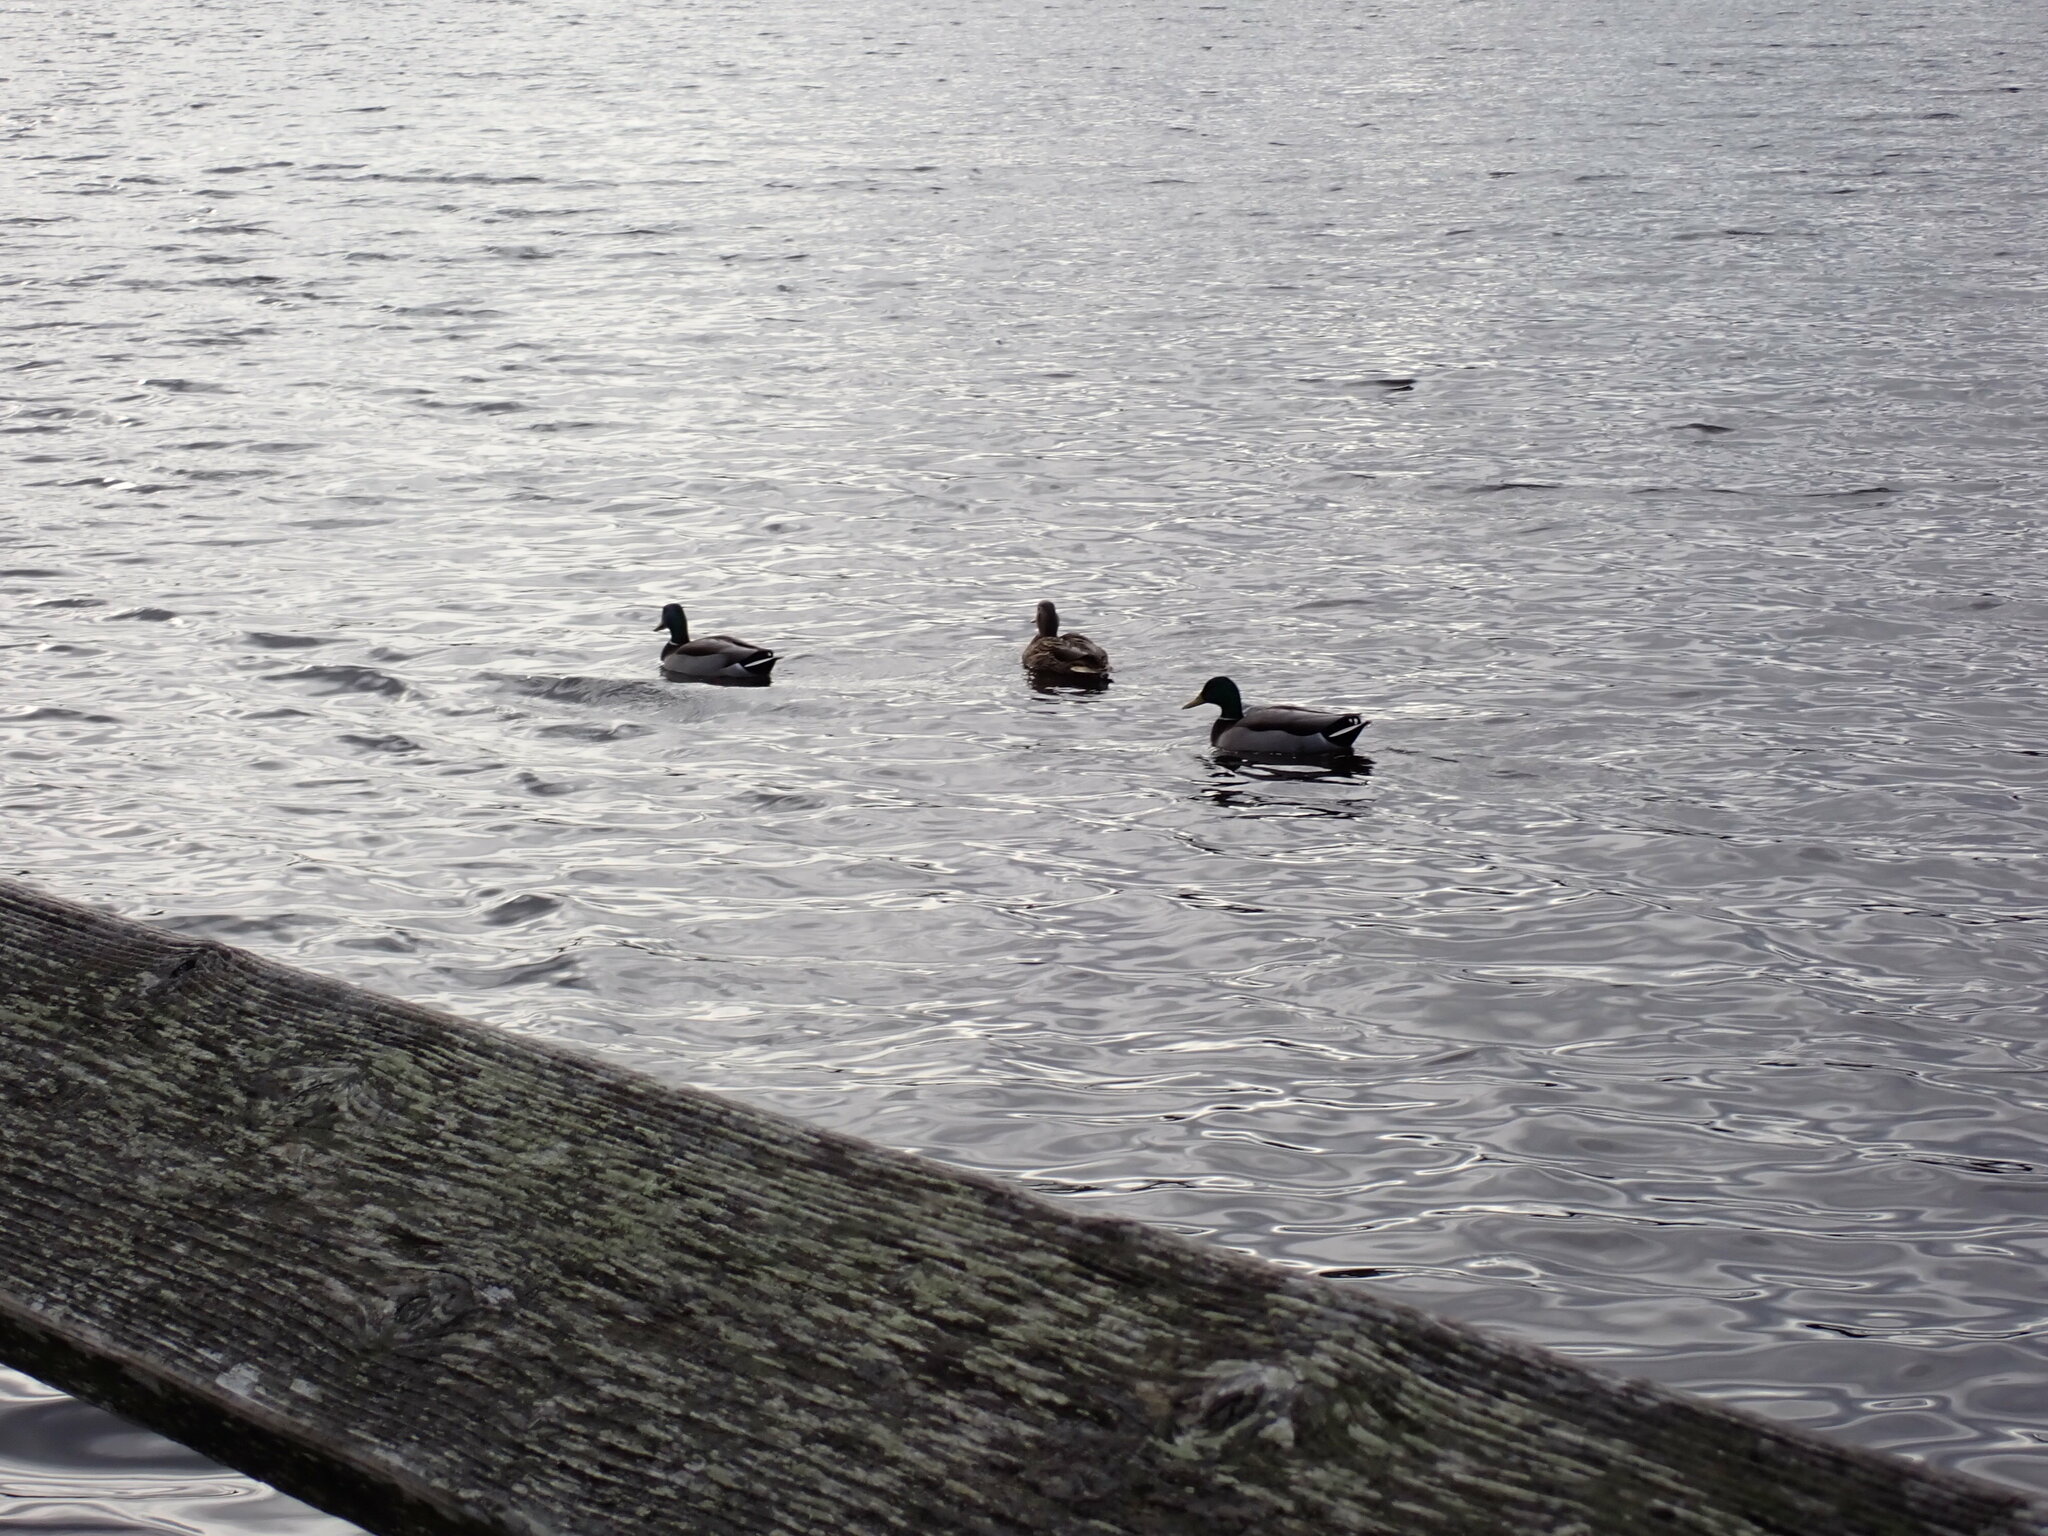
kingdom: Animalia
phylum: Chordata
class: Aves
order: Anseriformes
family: Anatidae
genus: Anas
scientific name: Anas platyrhynchos
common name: Mallard
